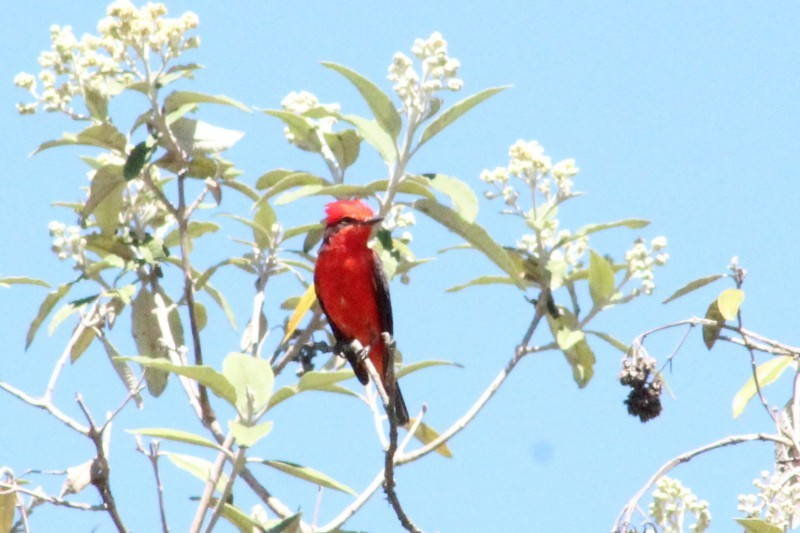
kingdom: Animalia
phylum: Chordata
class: Aves
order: Passeriformes
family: Tyrannidae
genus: Pyrocephalus
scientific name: Pyrocephalus rubinus
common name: Vermilion flycatcher
